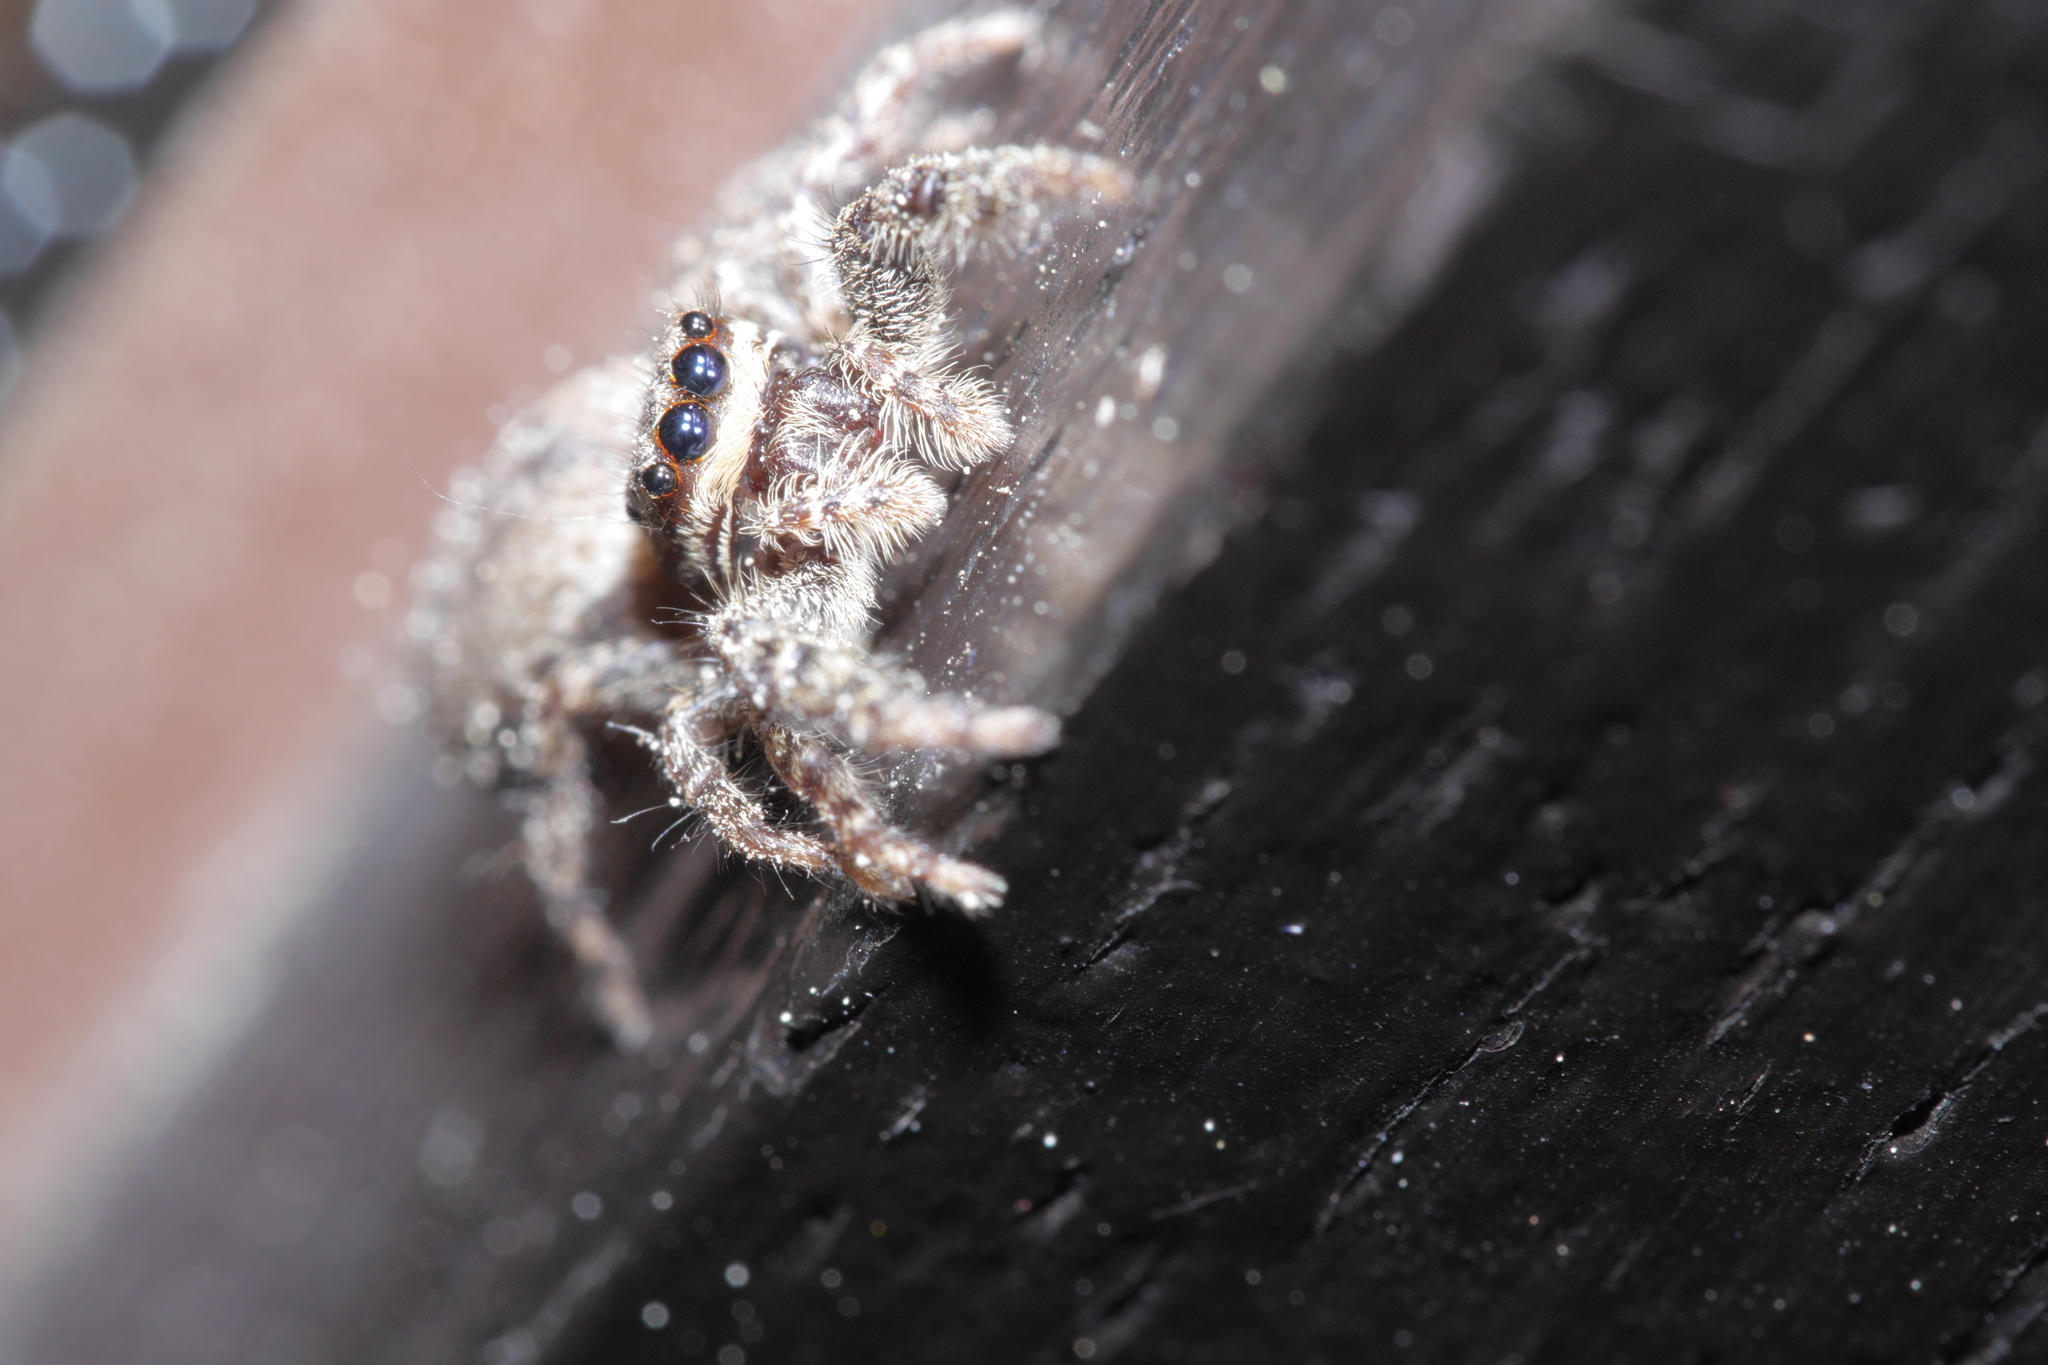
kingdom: Animalia
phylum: Arthropoda
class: Arachnida
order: Araneae
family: Salticidae
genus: Marpissa
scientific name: Marpissa muscosa
